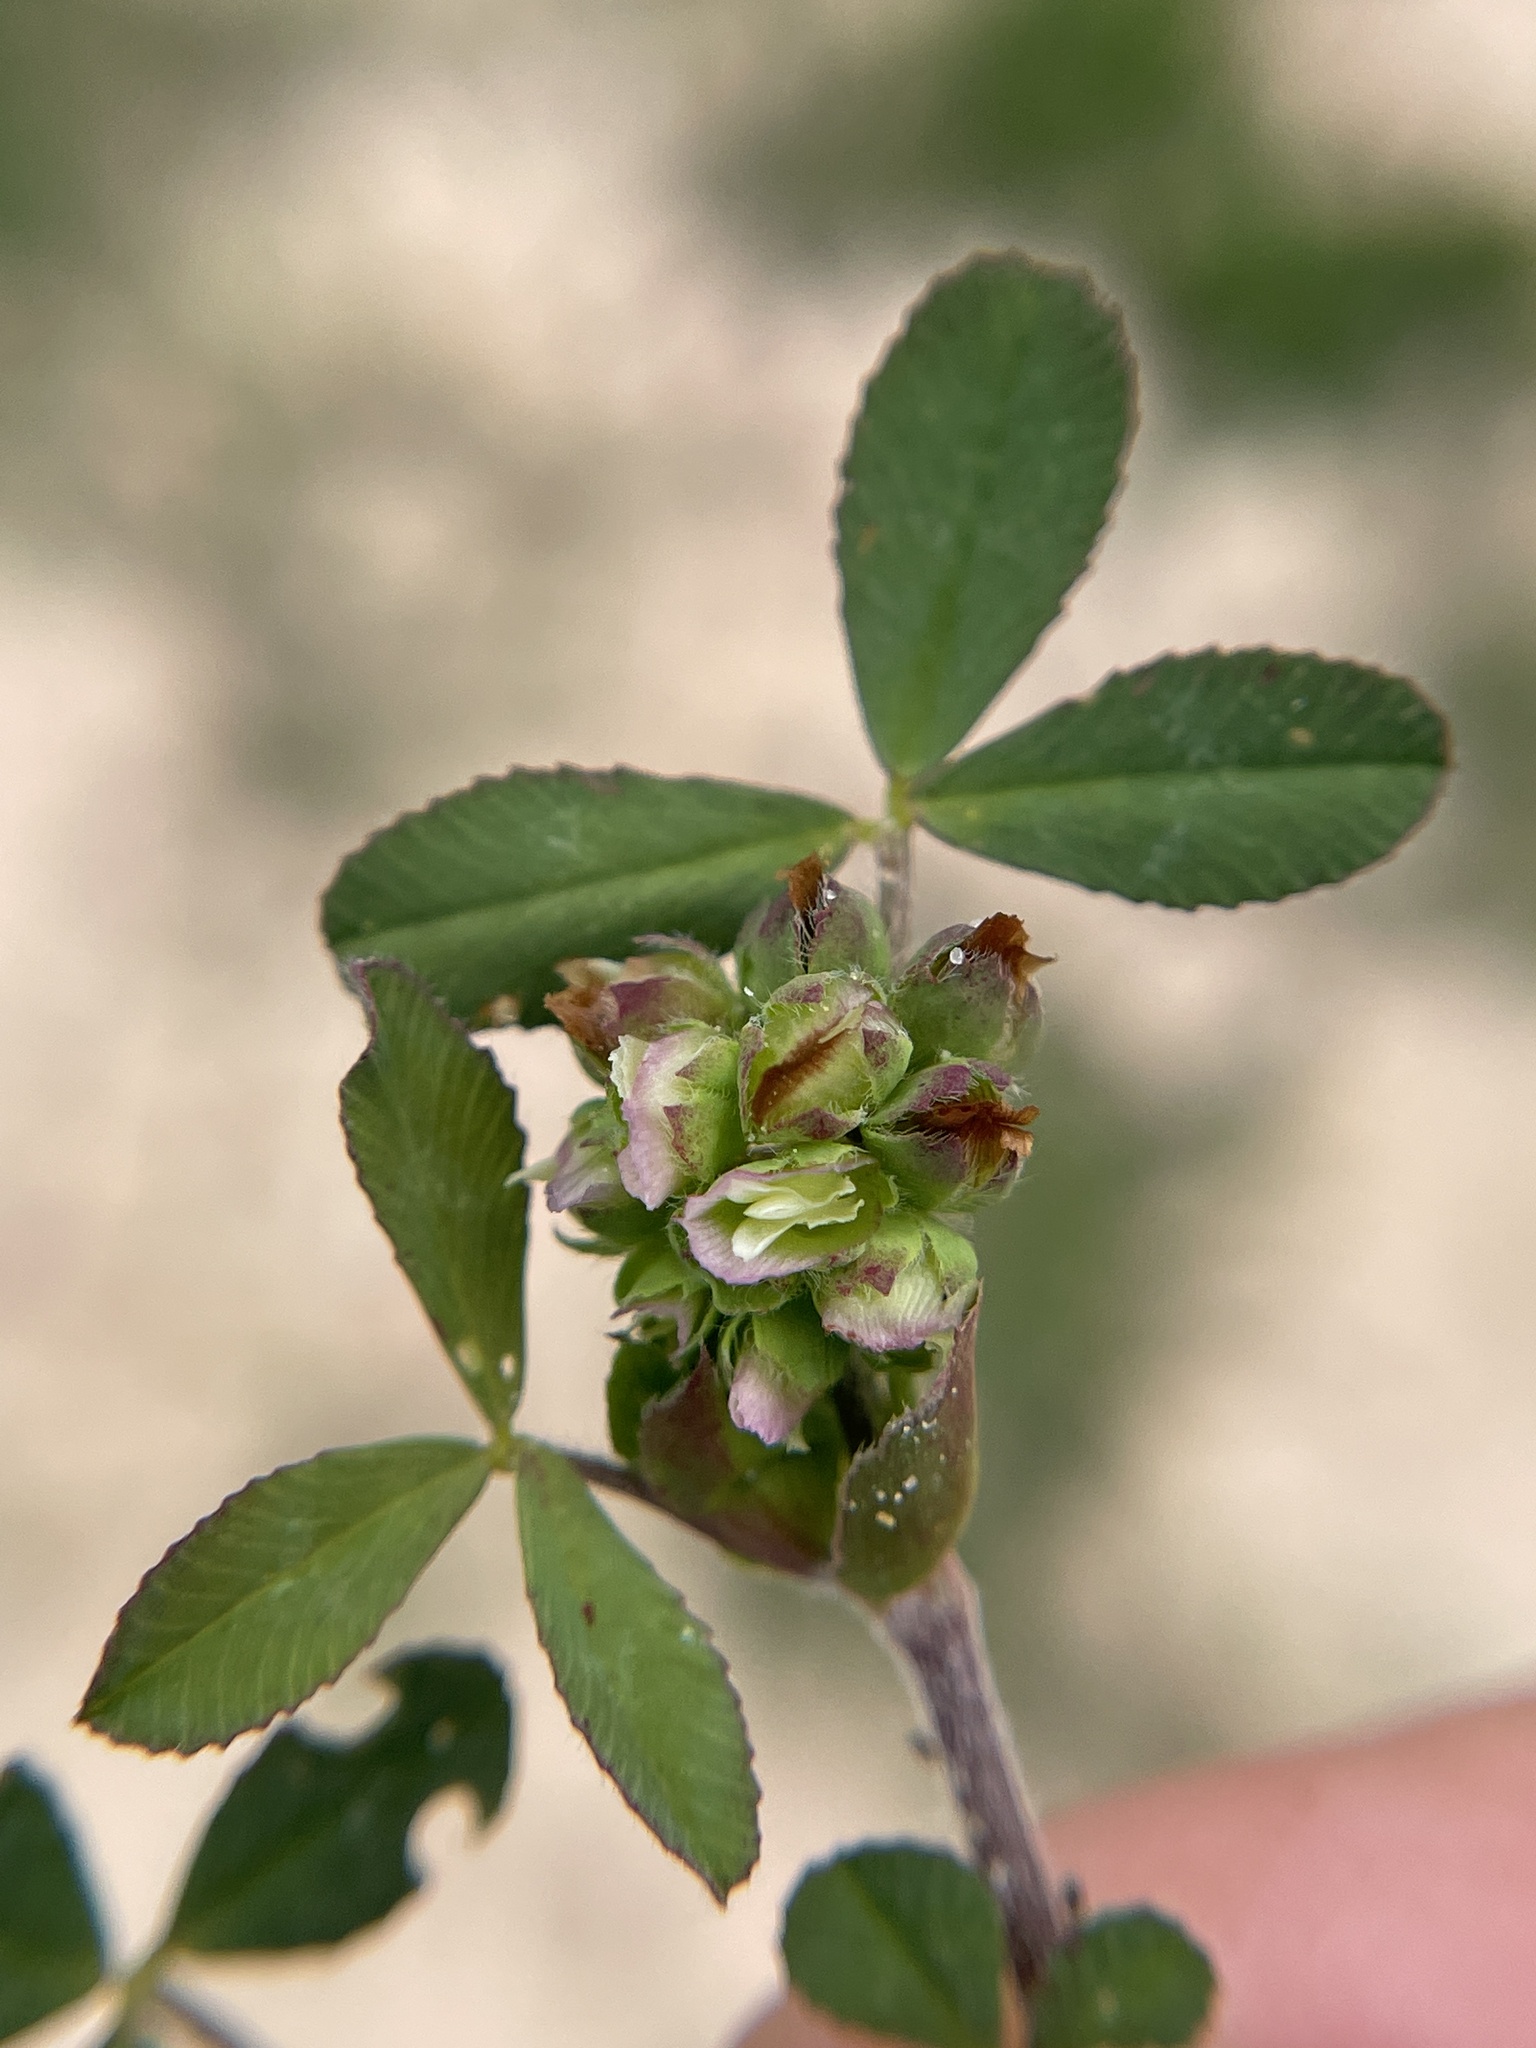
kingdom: Plantae
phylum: Tracheophyta
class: Magnoliopsida
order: Fabales
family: Fabaceae
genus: Trifolium
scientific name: Trifolium bejariense
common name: Bejar clover
